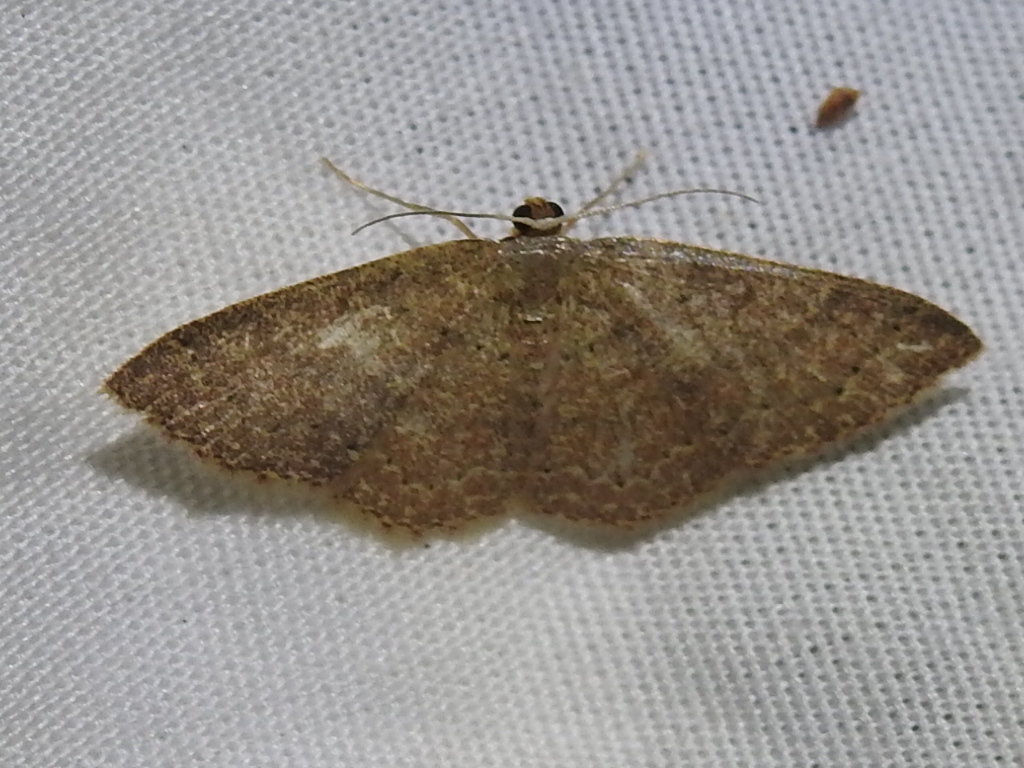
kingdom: Animalia
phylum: Arthropoda
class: Insecta
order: Lepidoptera
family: Geometridae
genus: Pleuroprucha
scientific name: Pleuroprucha insulsaria
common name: Common tan wave
